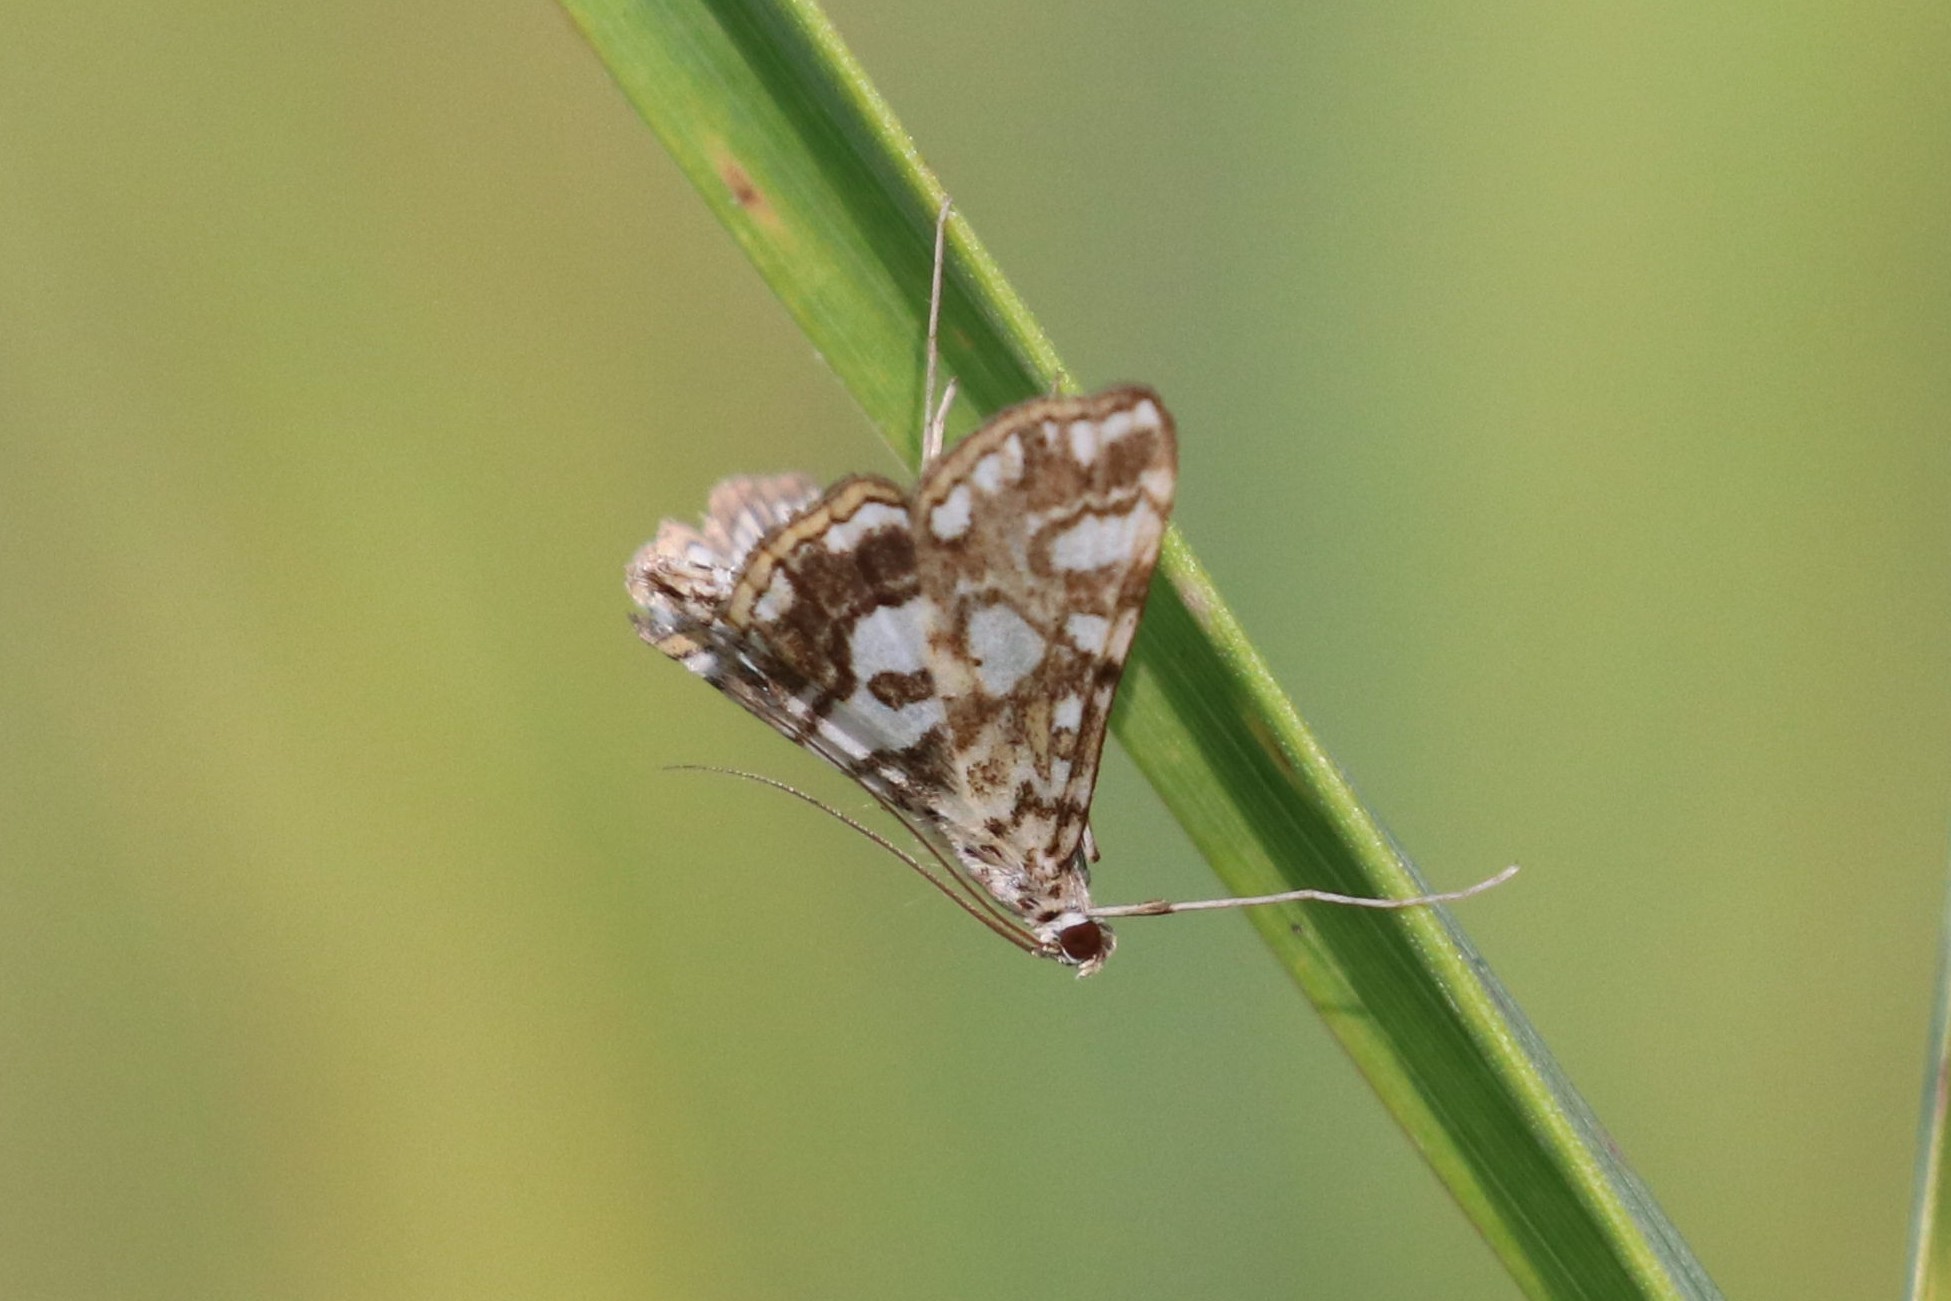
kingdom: Animalia
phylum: Arthropoda
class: Insecta
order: Lepidoptera
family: Crambidae
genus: Elophila
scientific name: Elophila nymphaeata
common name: Brown china-mark
